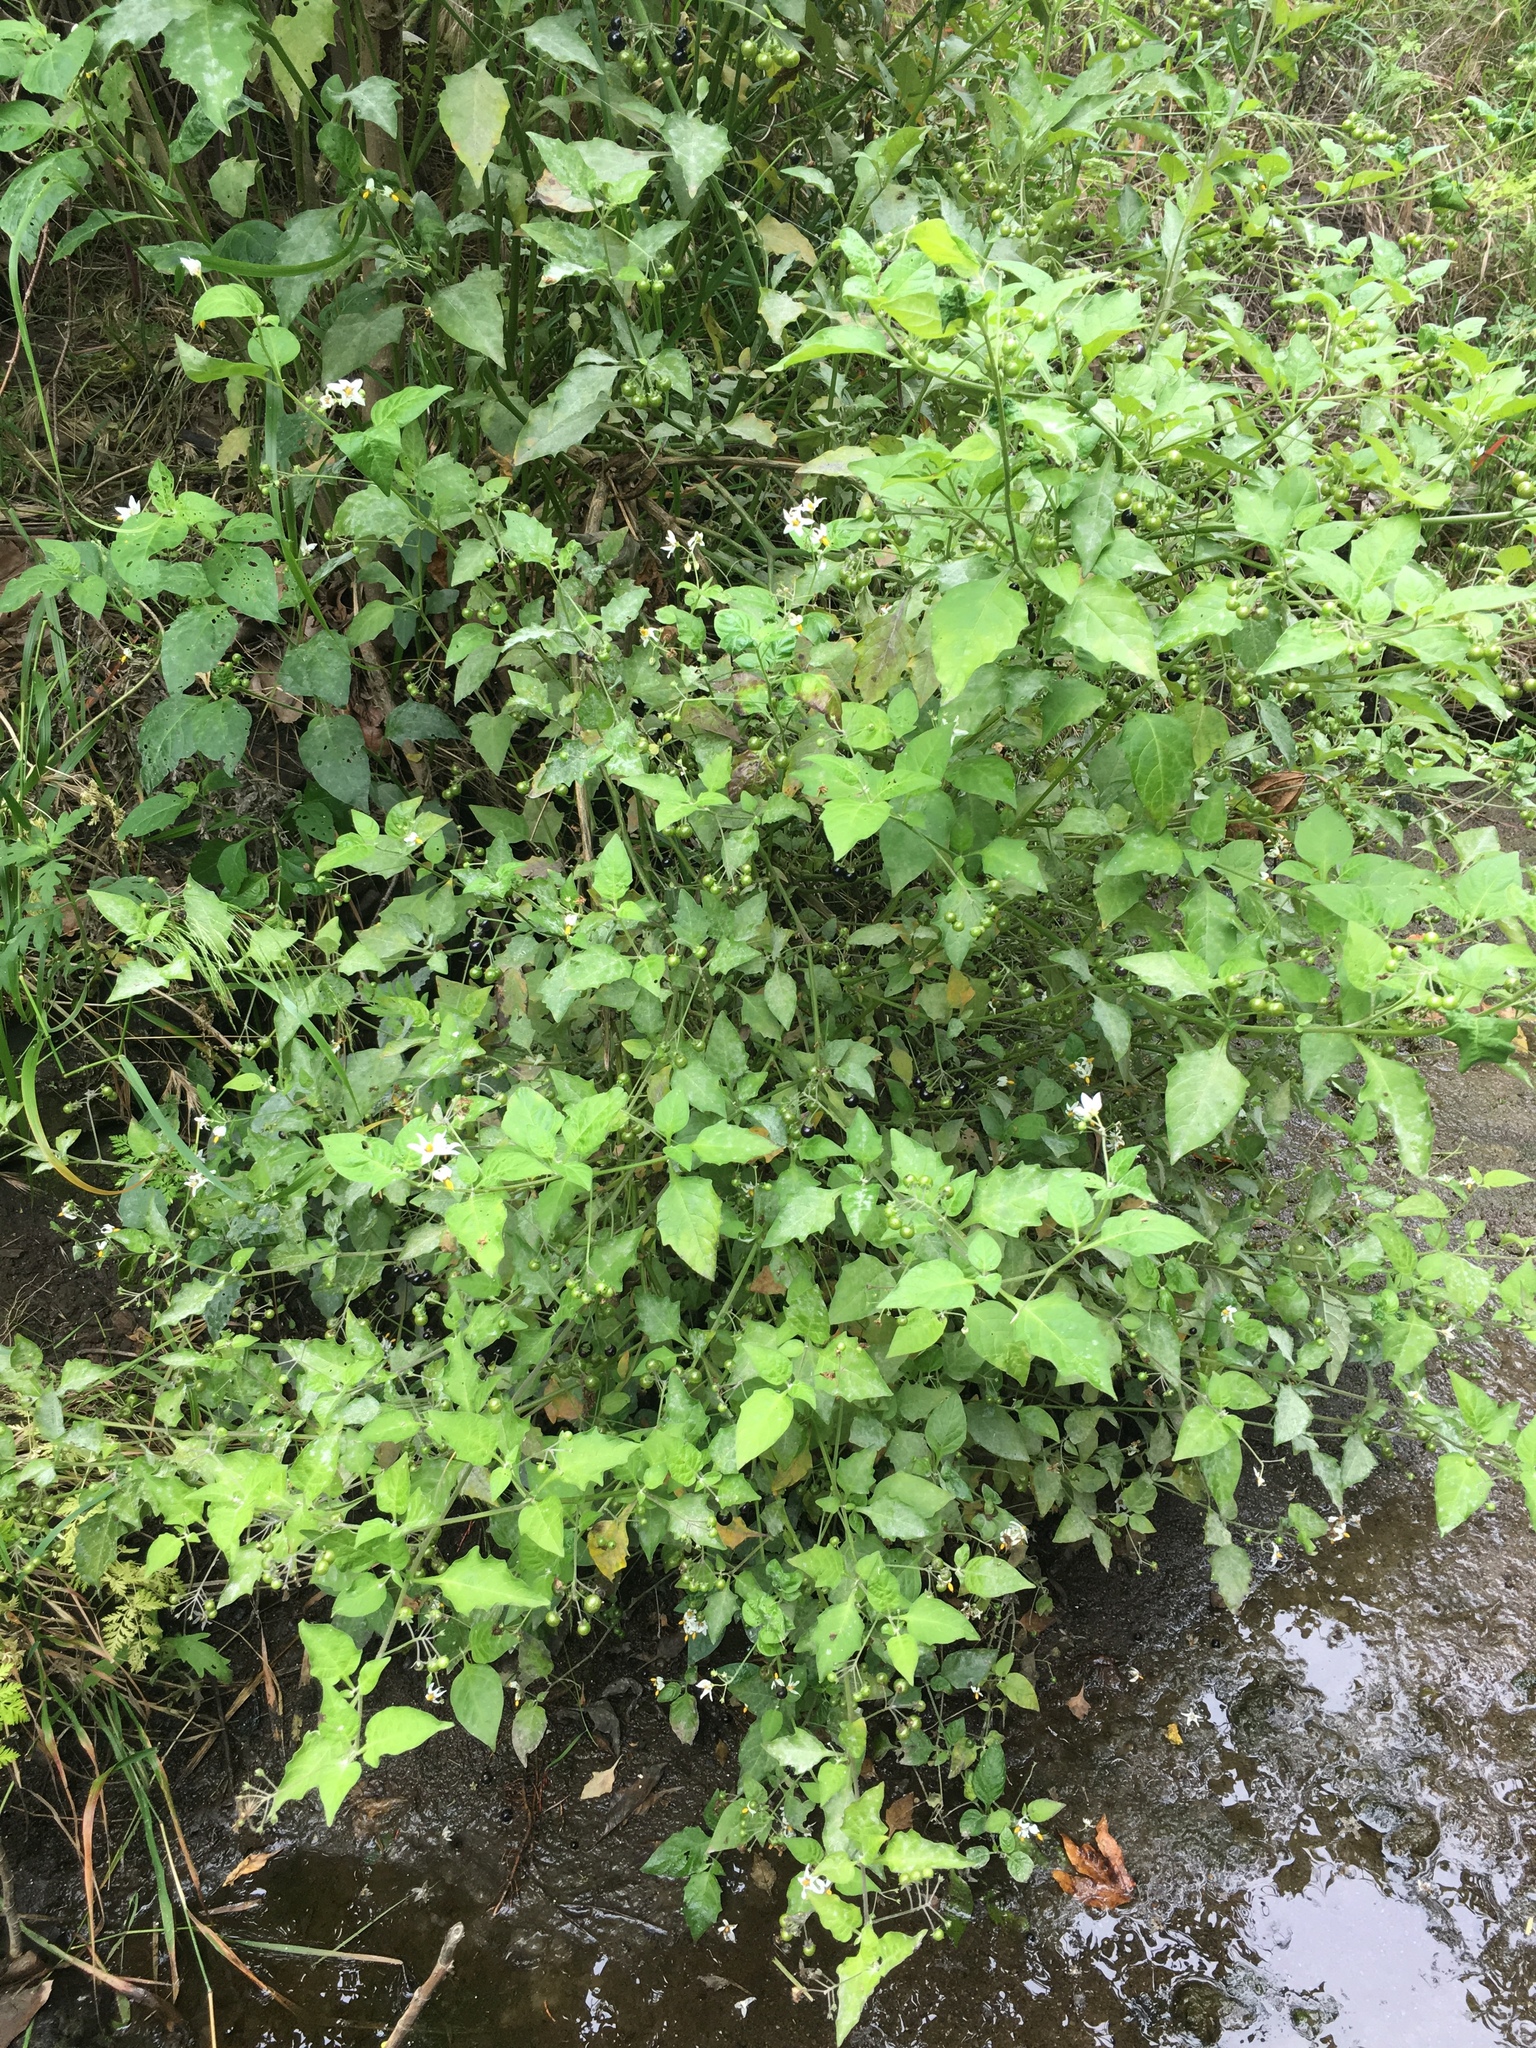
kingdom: Plantae
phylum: Tracheophyta
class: Magnoliopsida
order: Solanales
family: Solanaceae
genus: Solanum
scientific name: Solanum douglasii
